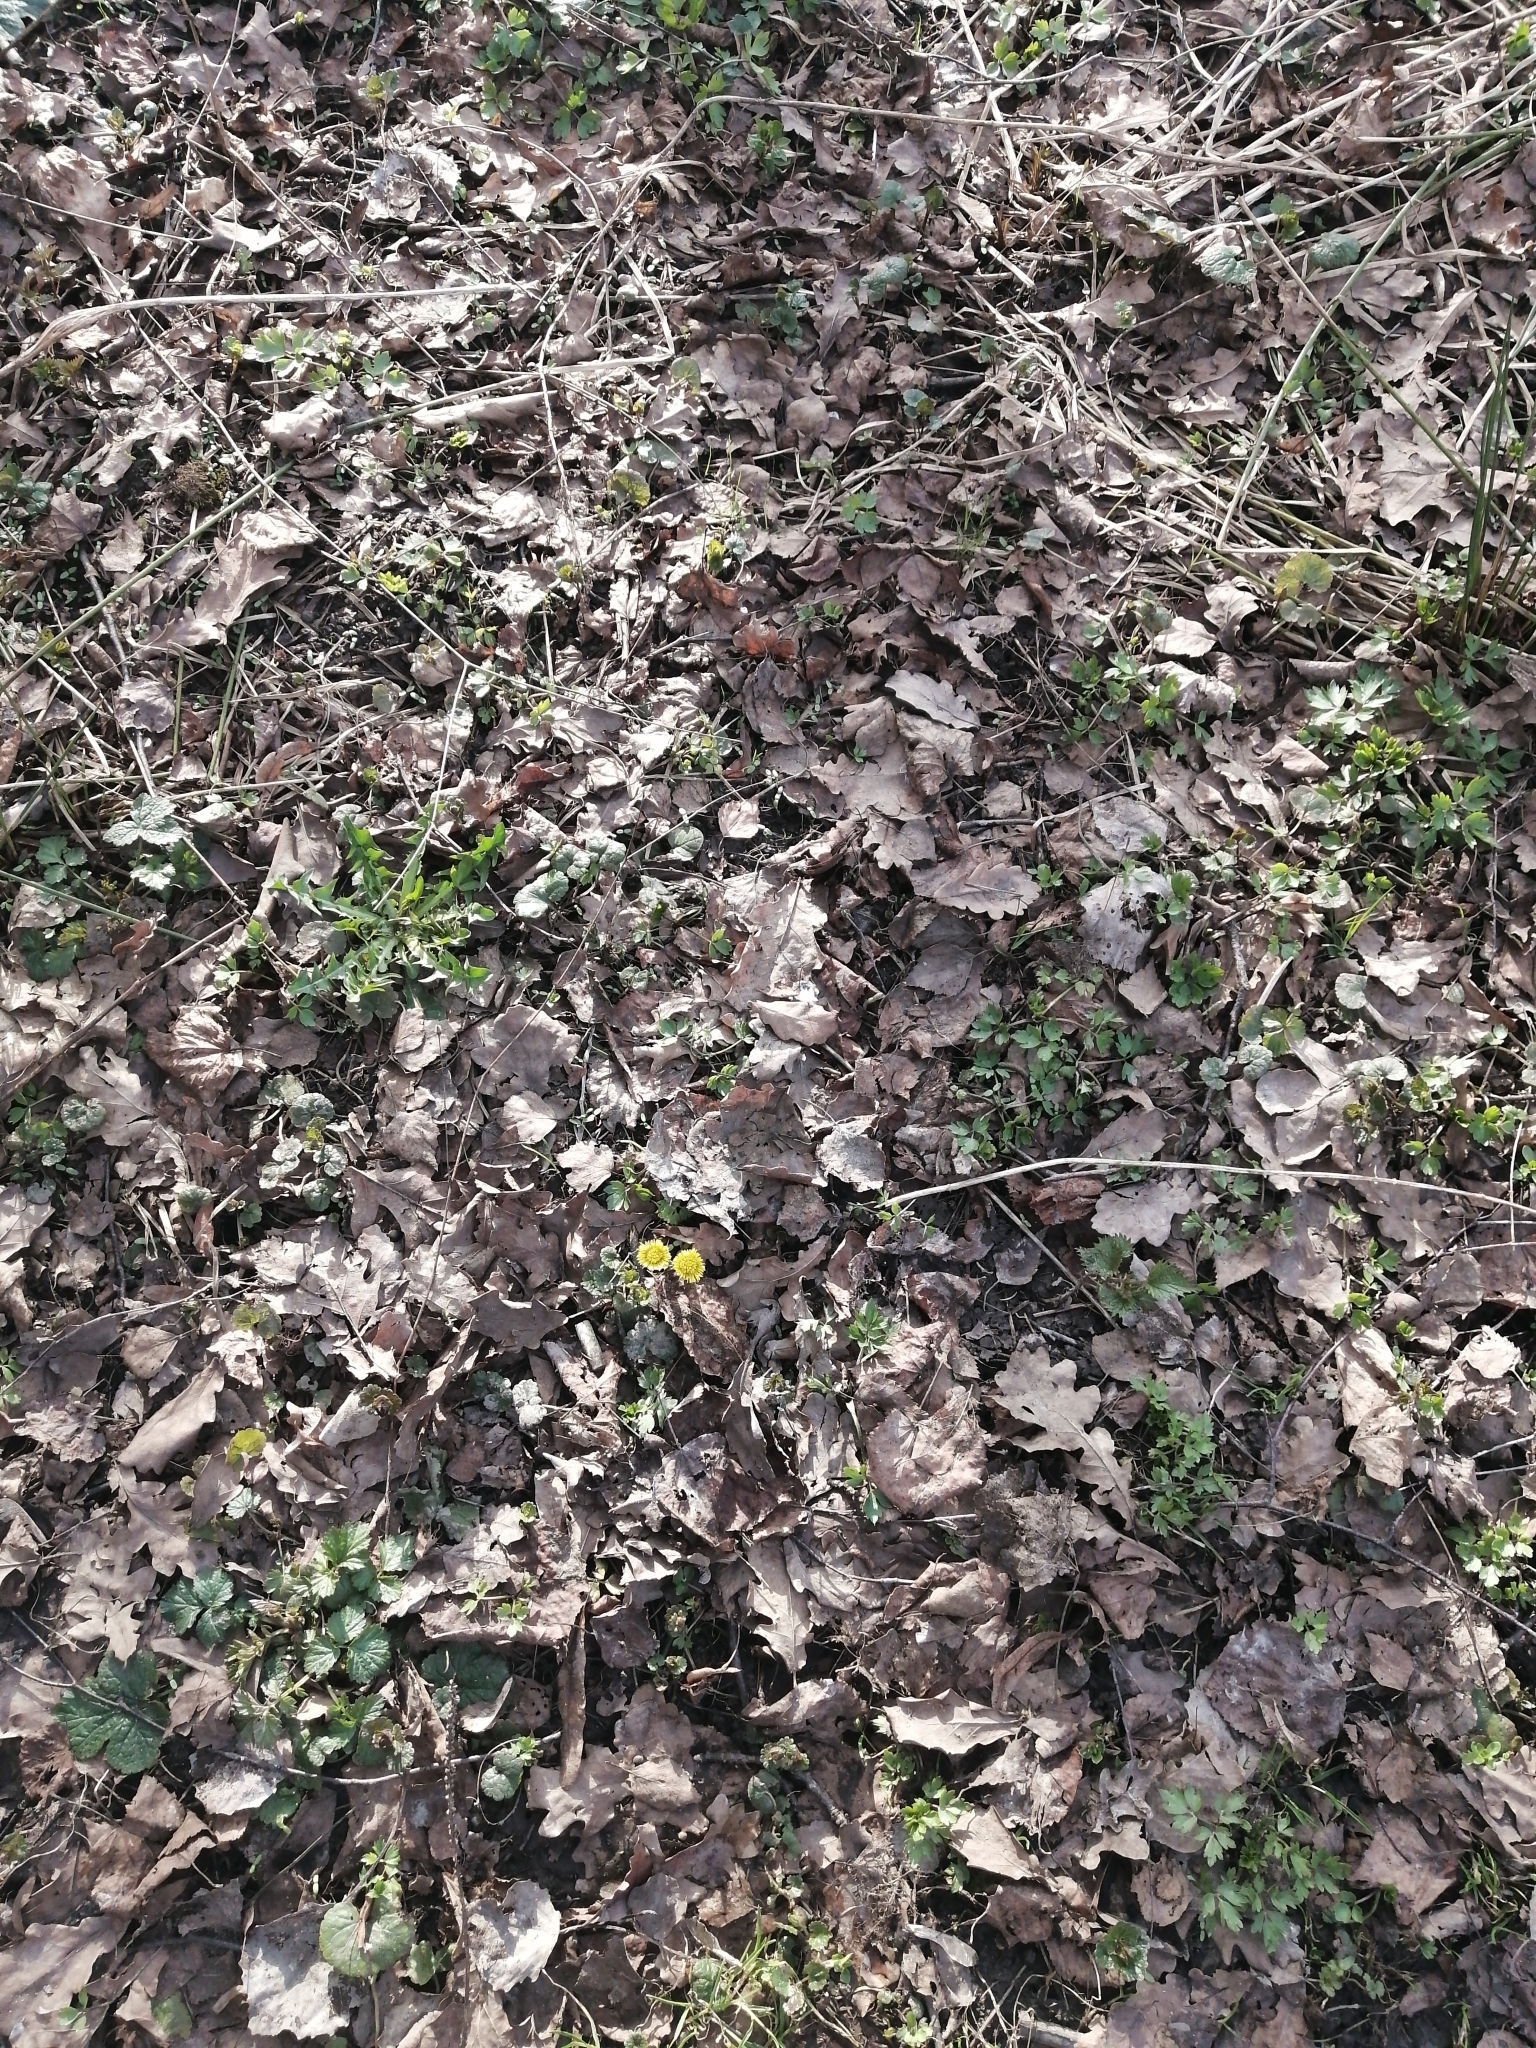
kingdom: Plantae
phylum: Tracheophyta
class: Magnoliopsida
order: Asterales
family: Asteraceae
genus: Tussilago
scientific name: Tussilago farfara
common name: Coltsfoot
